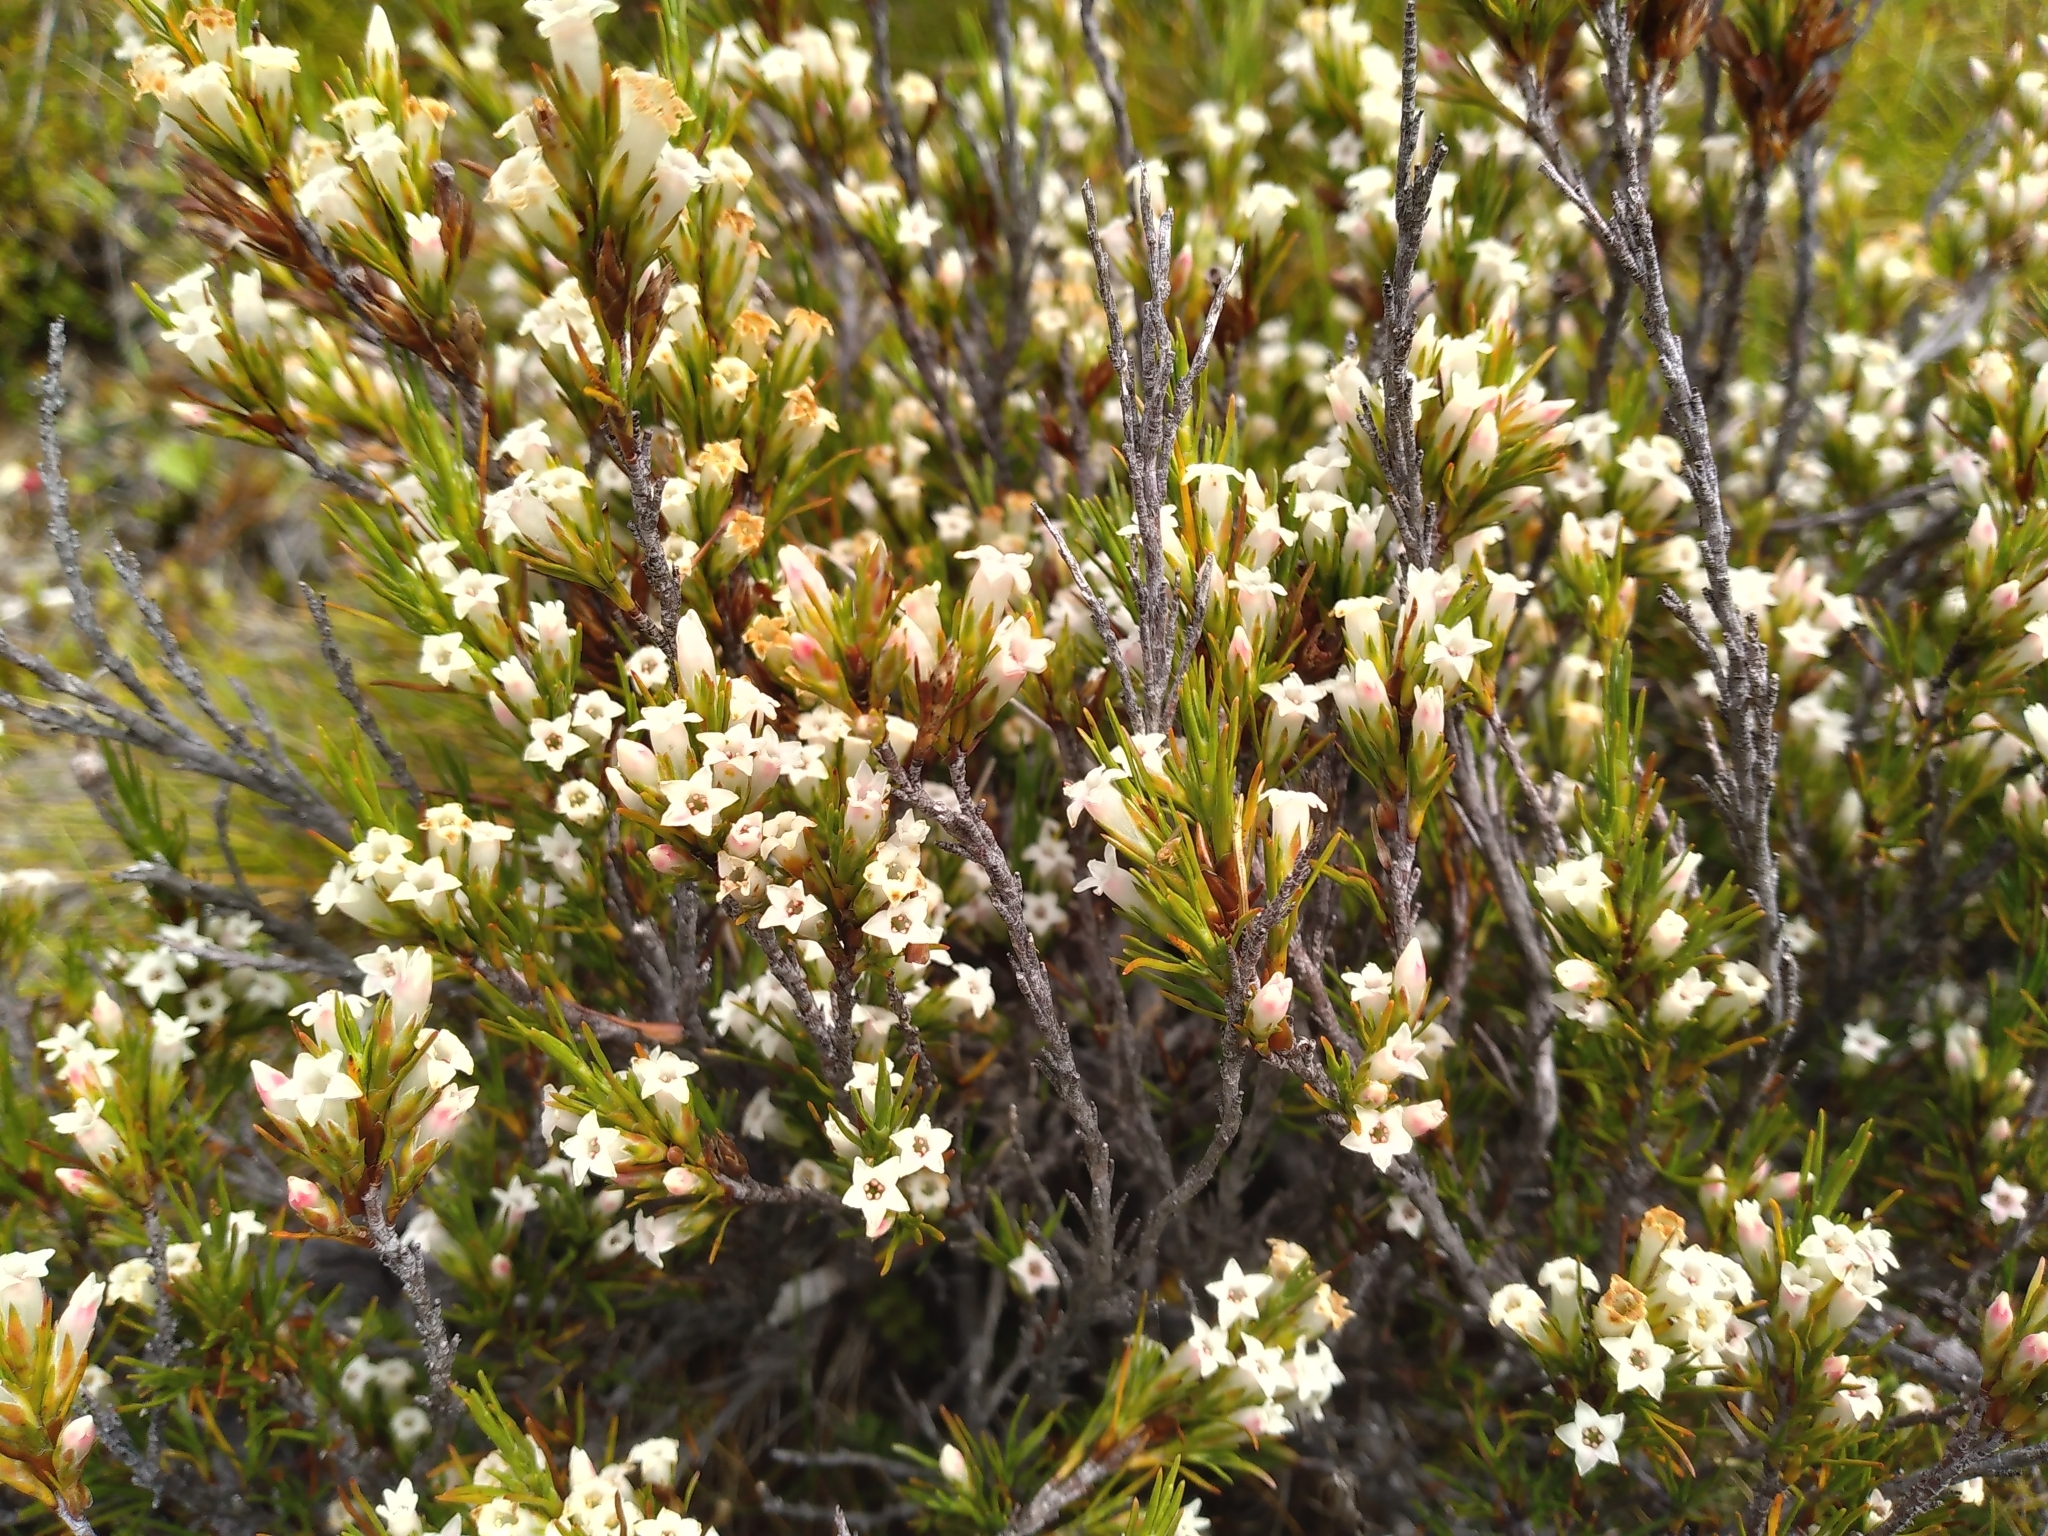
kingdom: Plantae
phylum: Tracheophyta
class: Magnoliopsida
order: Ericales
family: Ericaceae
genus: Dracophyllum
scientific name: Dracophyllum rosmarinifolium
